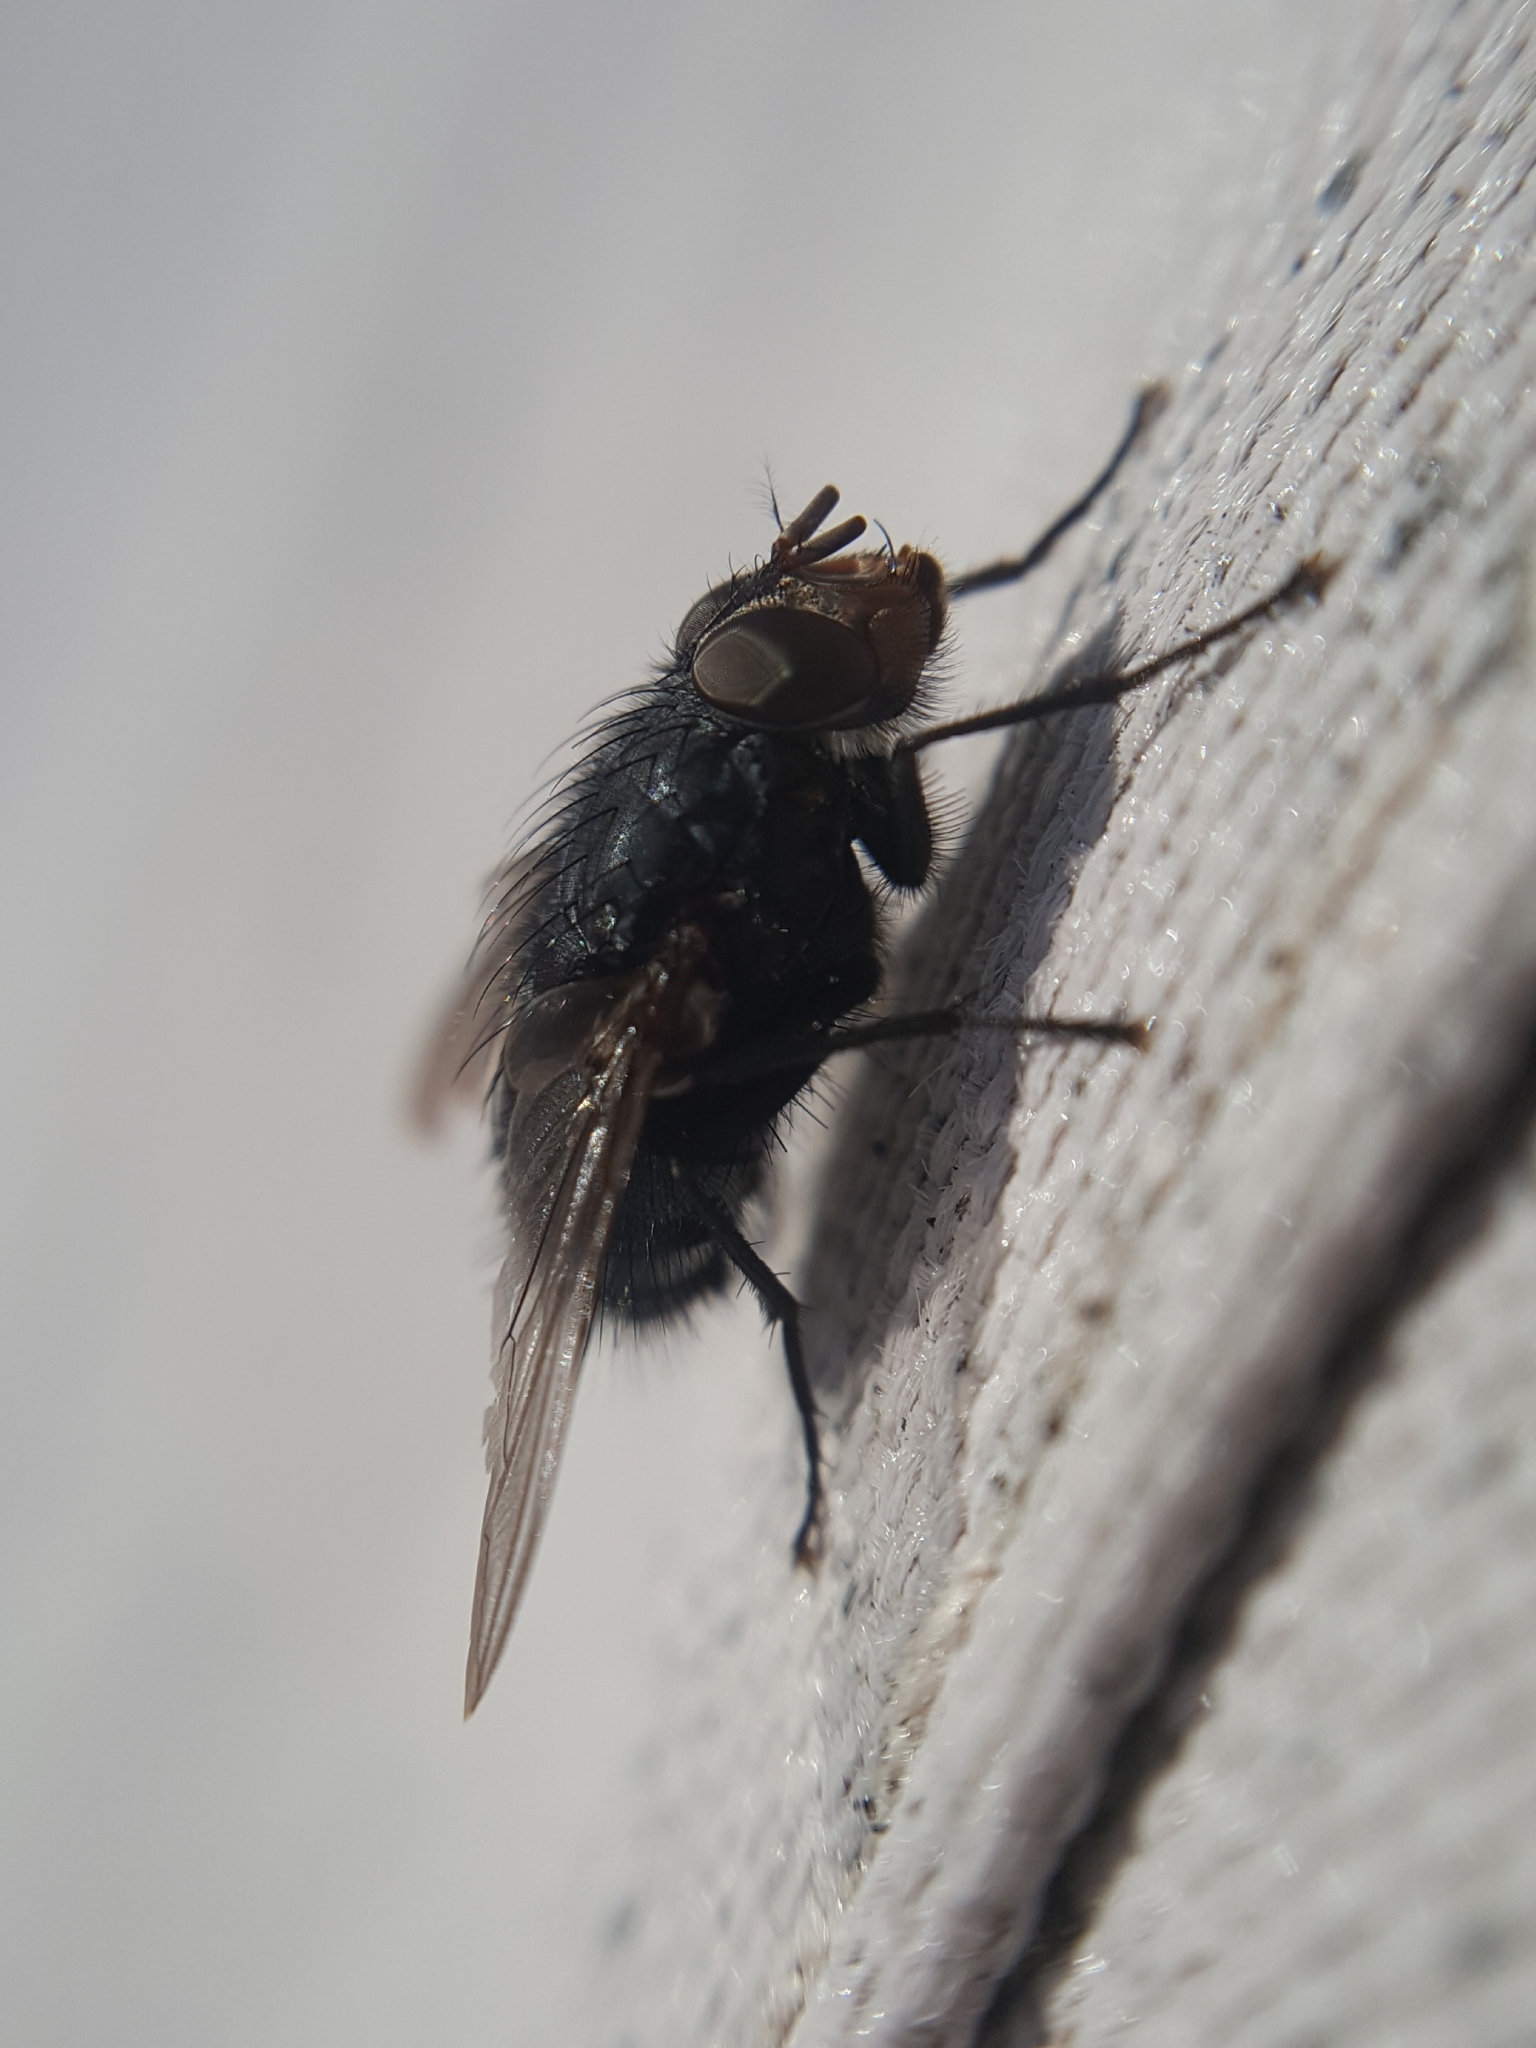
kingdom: Animalia
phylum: Arthropoda
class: Insecta
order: Diptera
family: Calliphoridae
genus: Calliphora
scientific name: Calliphora vicina
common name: Common blow flie
